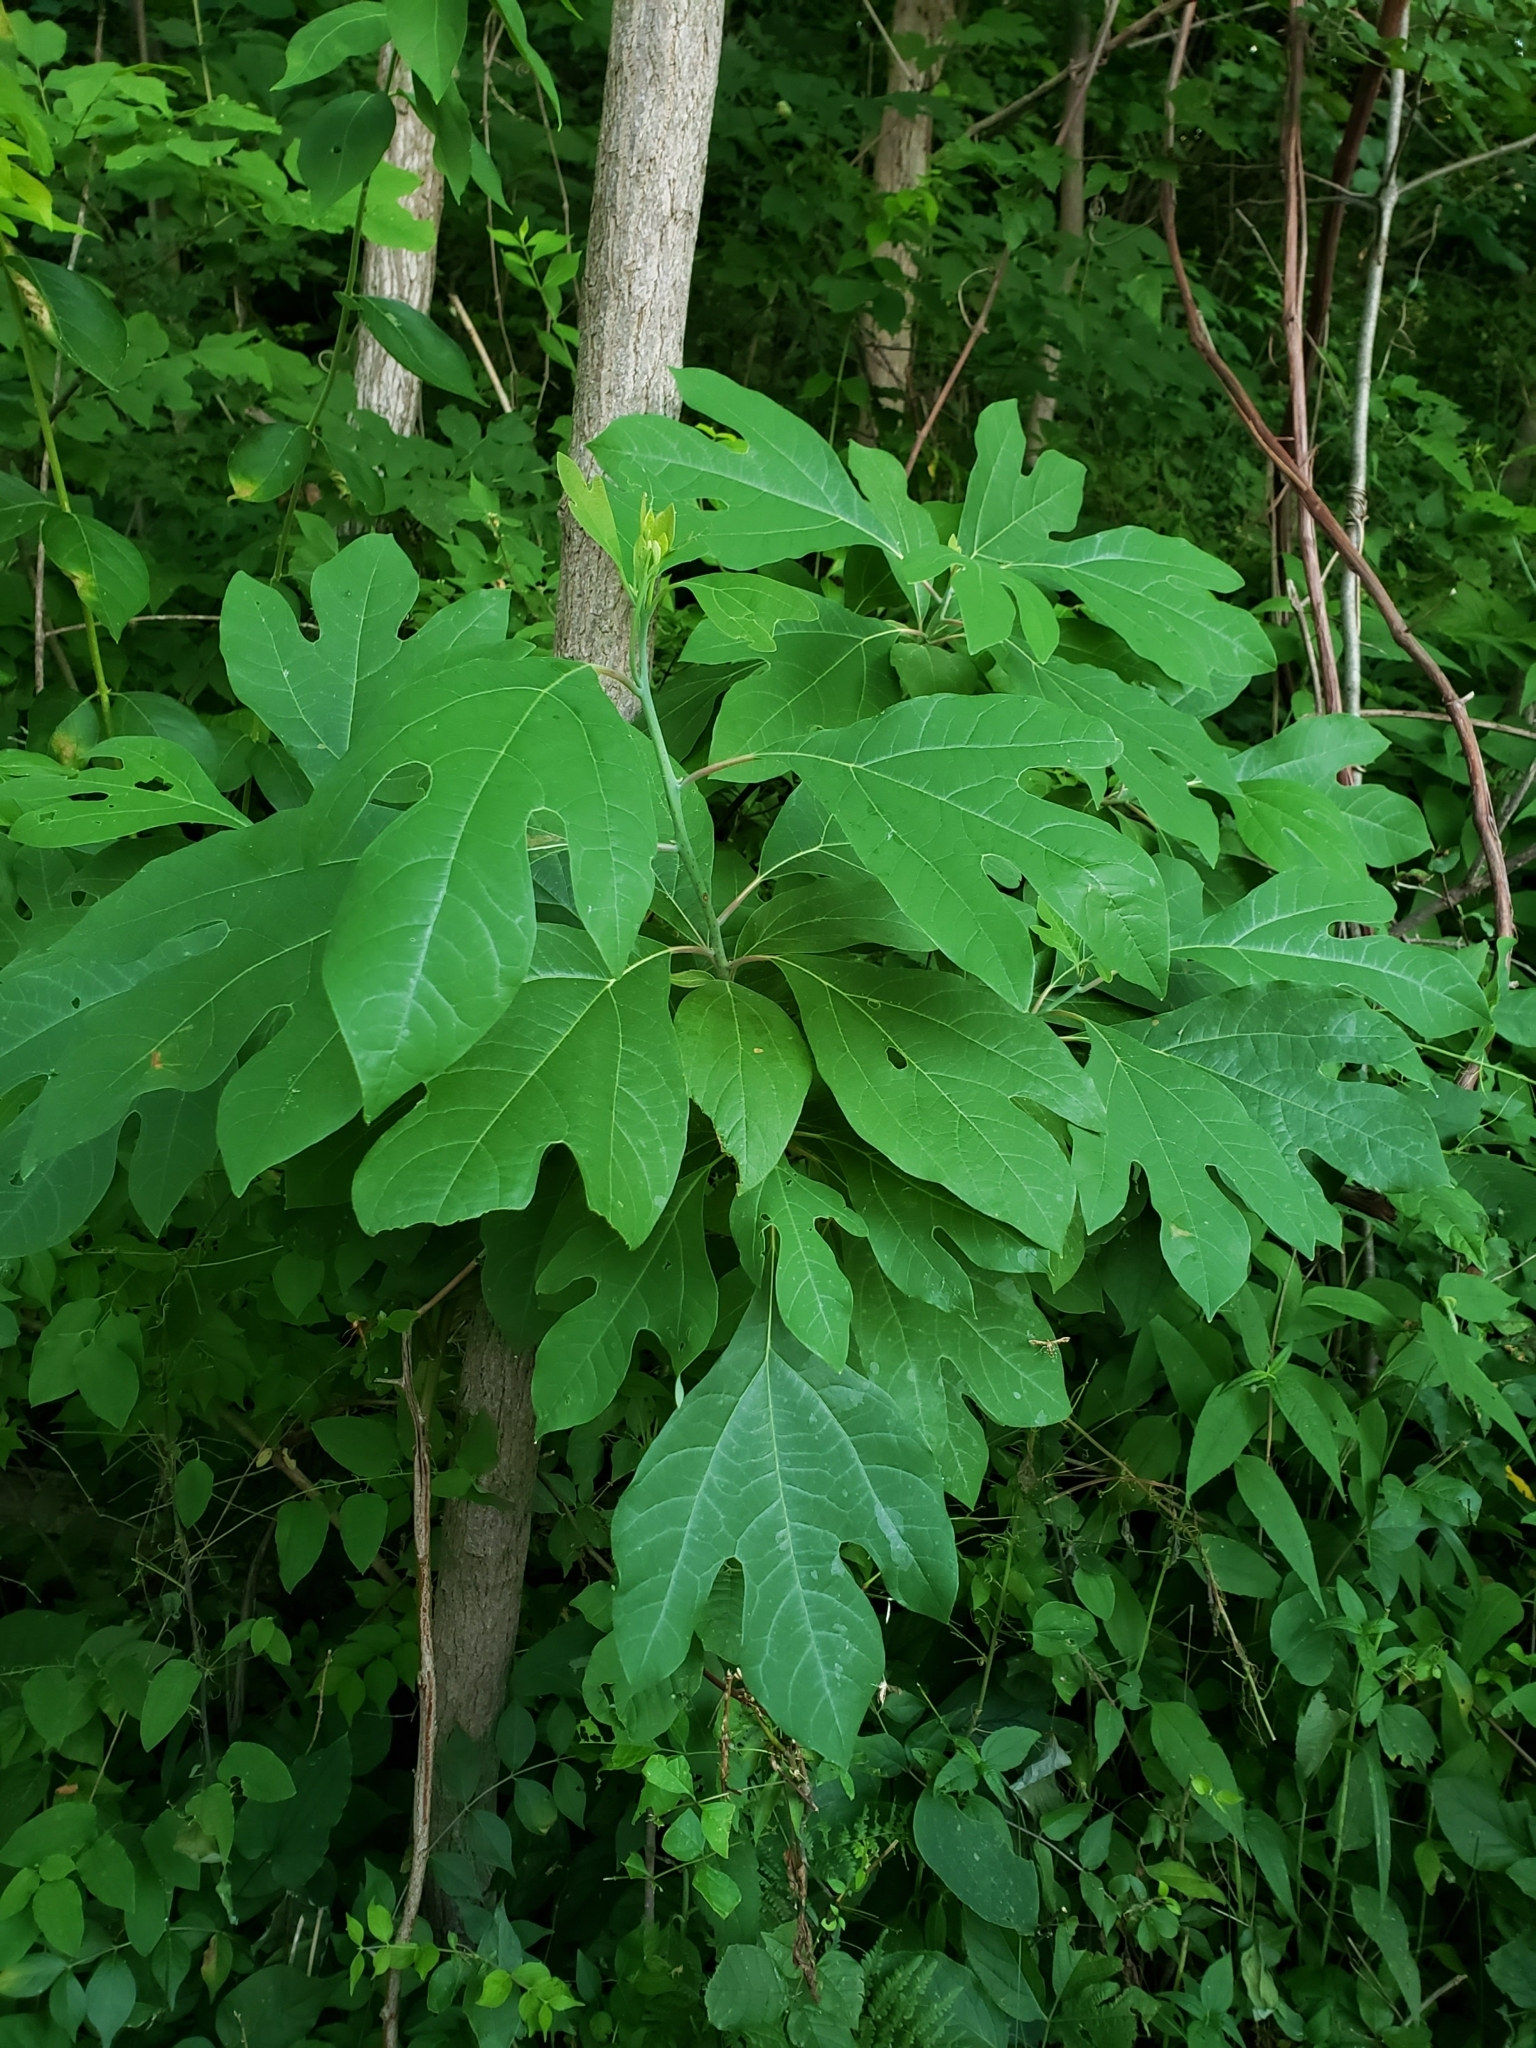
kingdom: Plantae
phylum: Tracheophyta
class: Magnoliopsida
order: Laurales
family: Lauraceae
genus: Sassafras
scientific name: Sassafras albidum
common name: Sassafras
